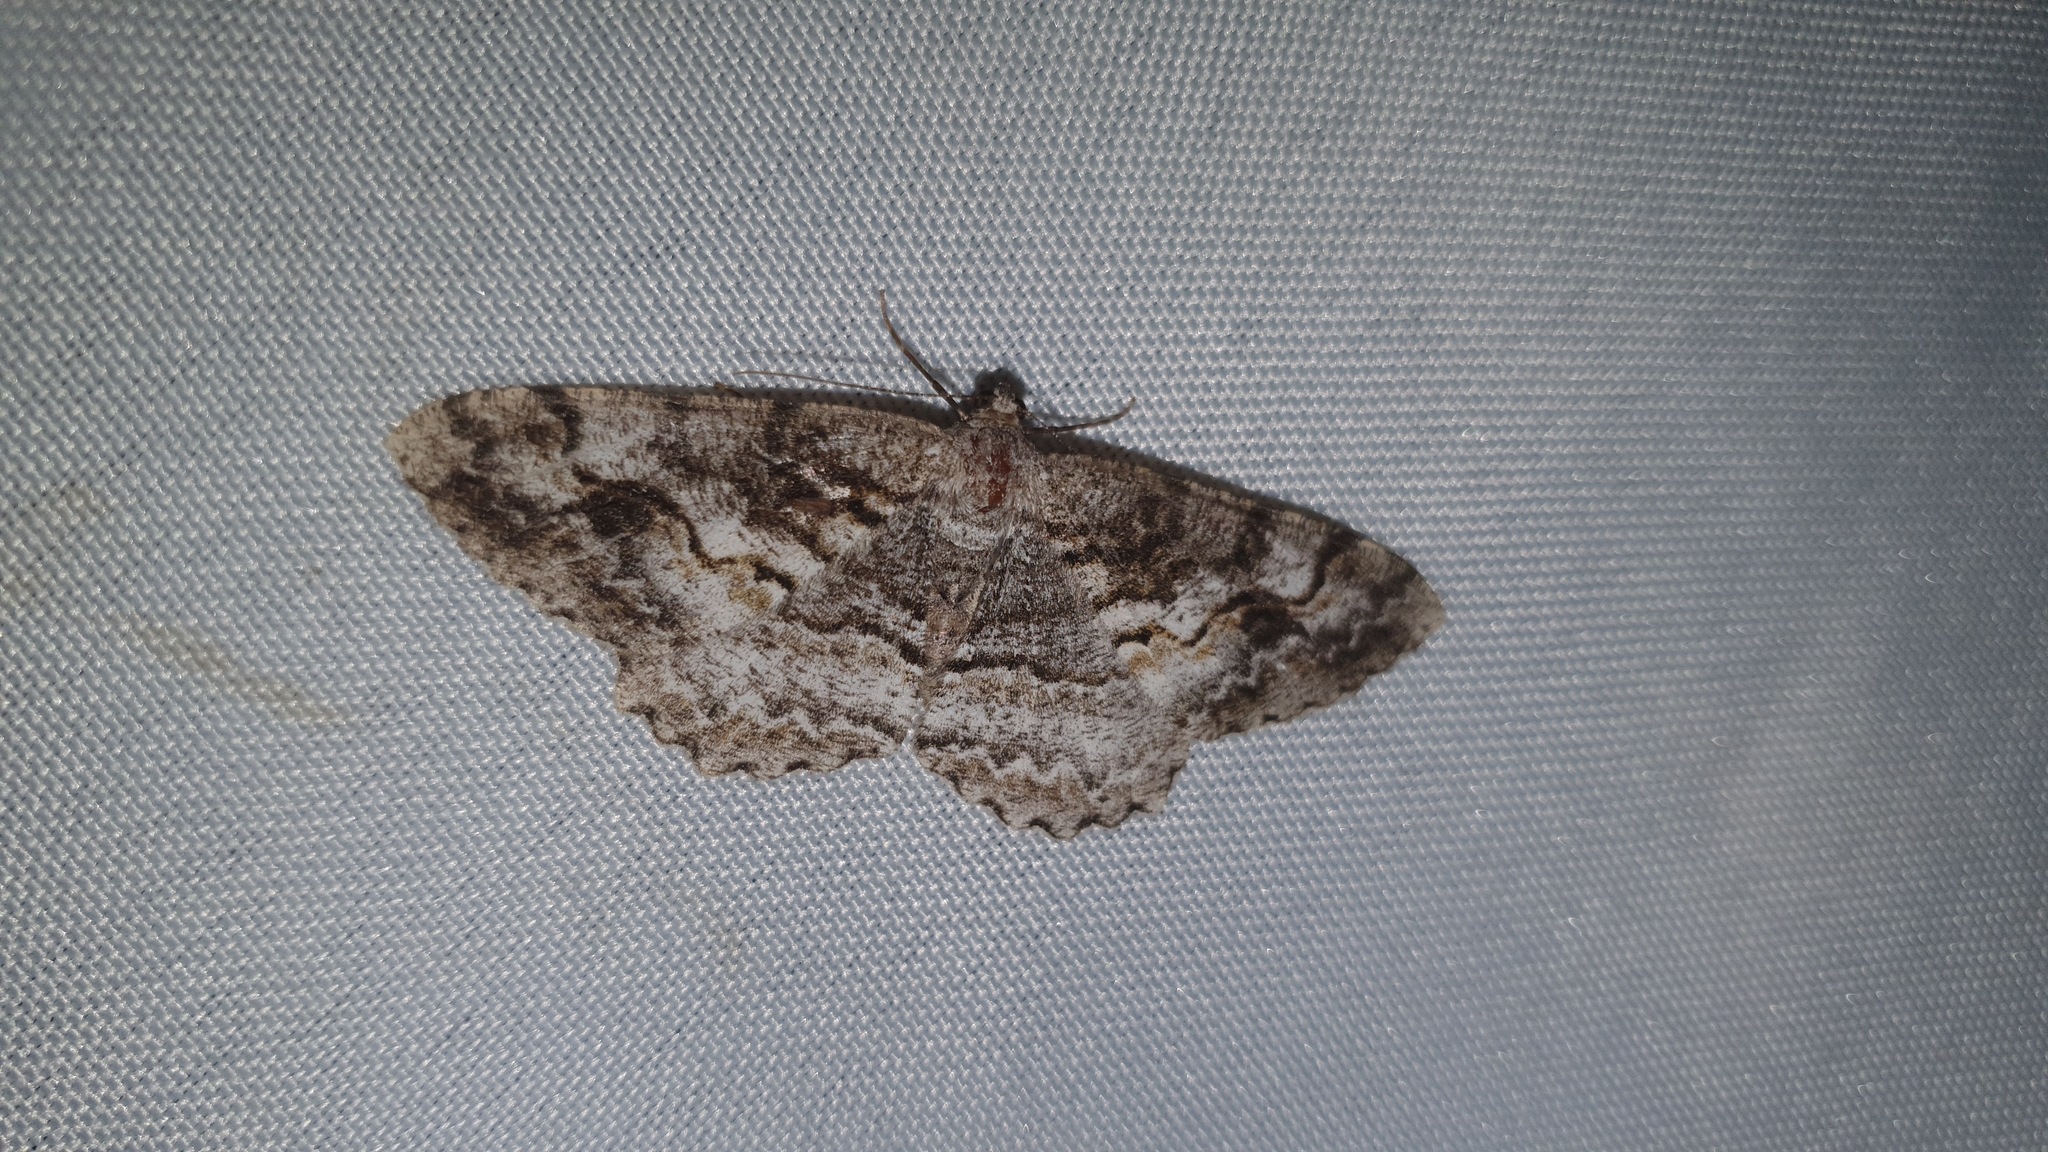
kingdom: Animalia
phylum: Arthropoda
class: Insecta
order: Lepidoptera
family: Geometridae
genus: Alcis
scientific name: Alcis repandata
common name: Mottled beauty
